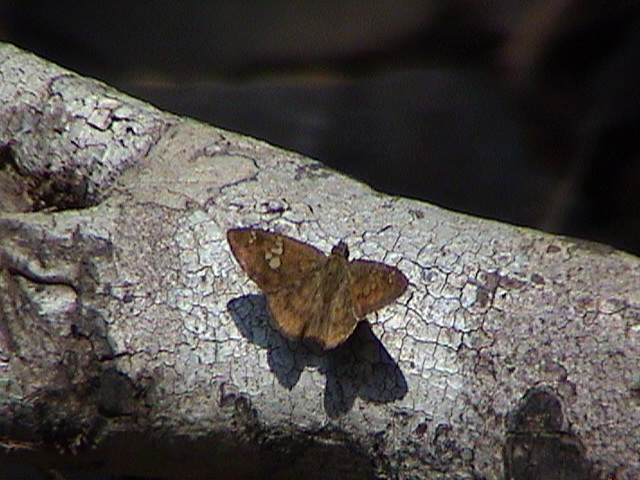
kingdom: Animalia
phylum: Arthropoda
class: Insecta
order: Lepidoptera
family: Hesperiidae
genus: Pseudocoladenia
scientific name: Pseudocoladenia dan
